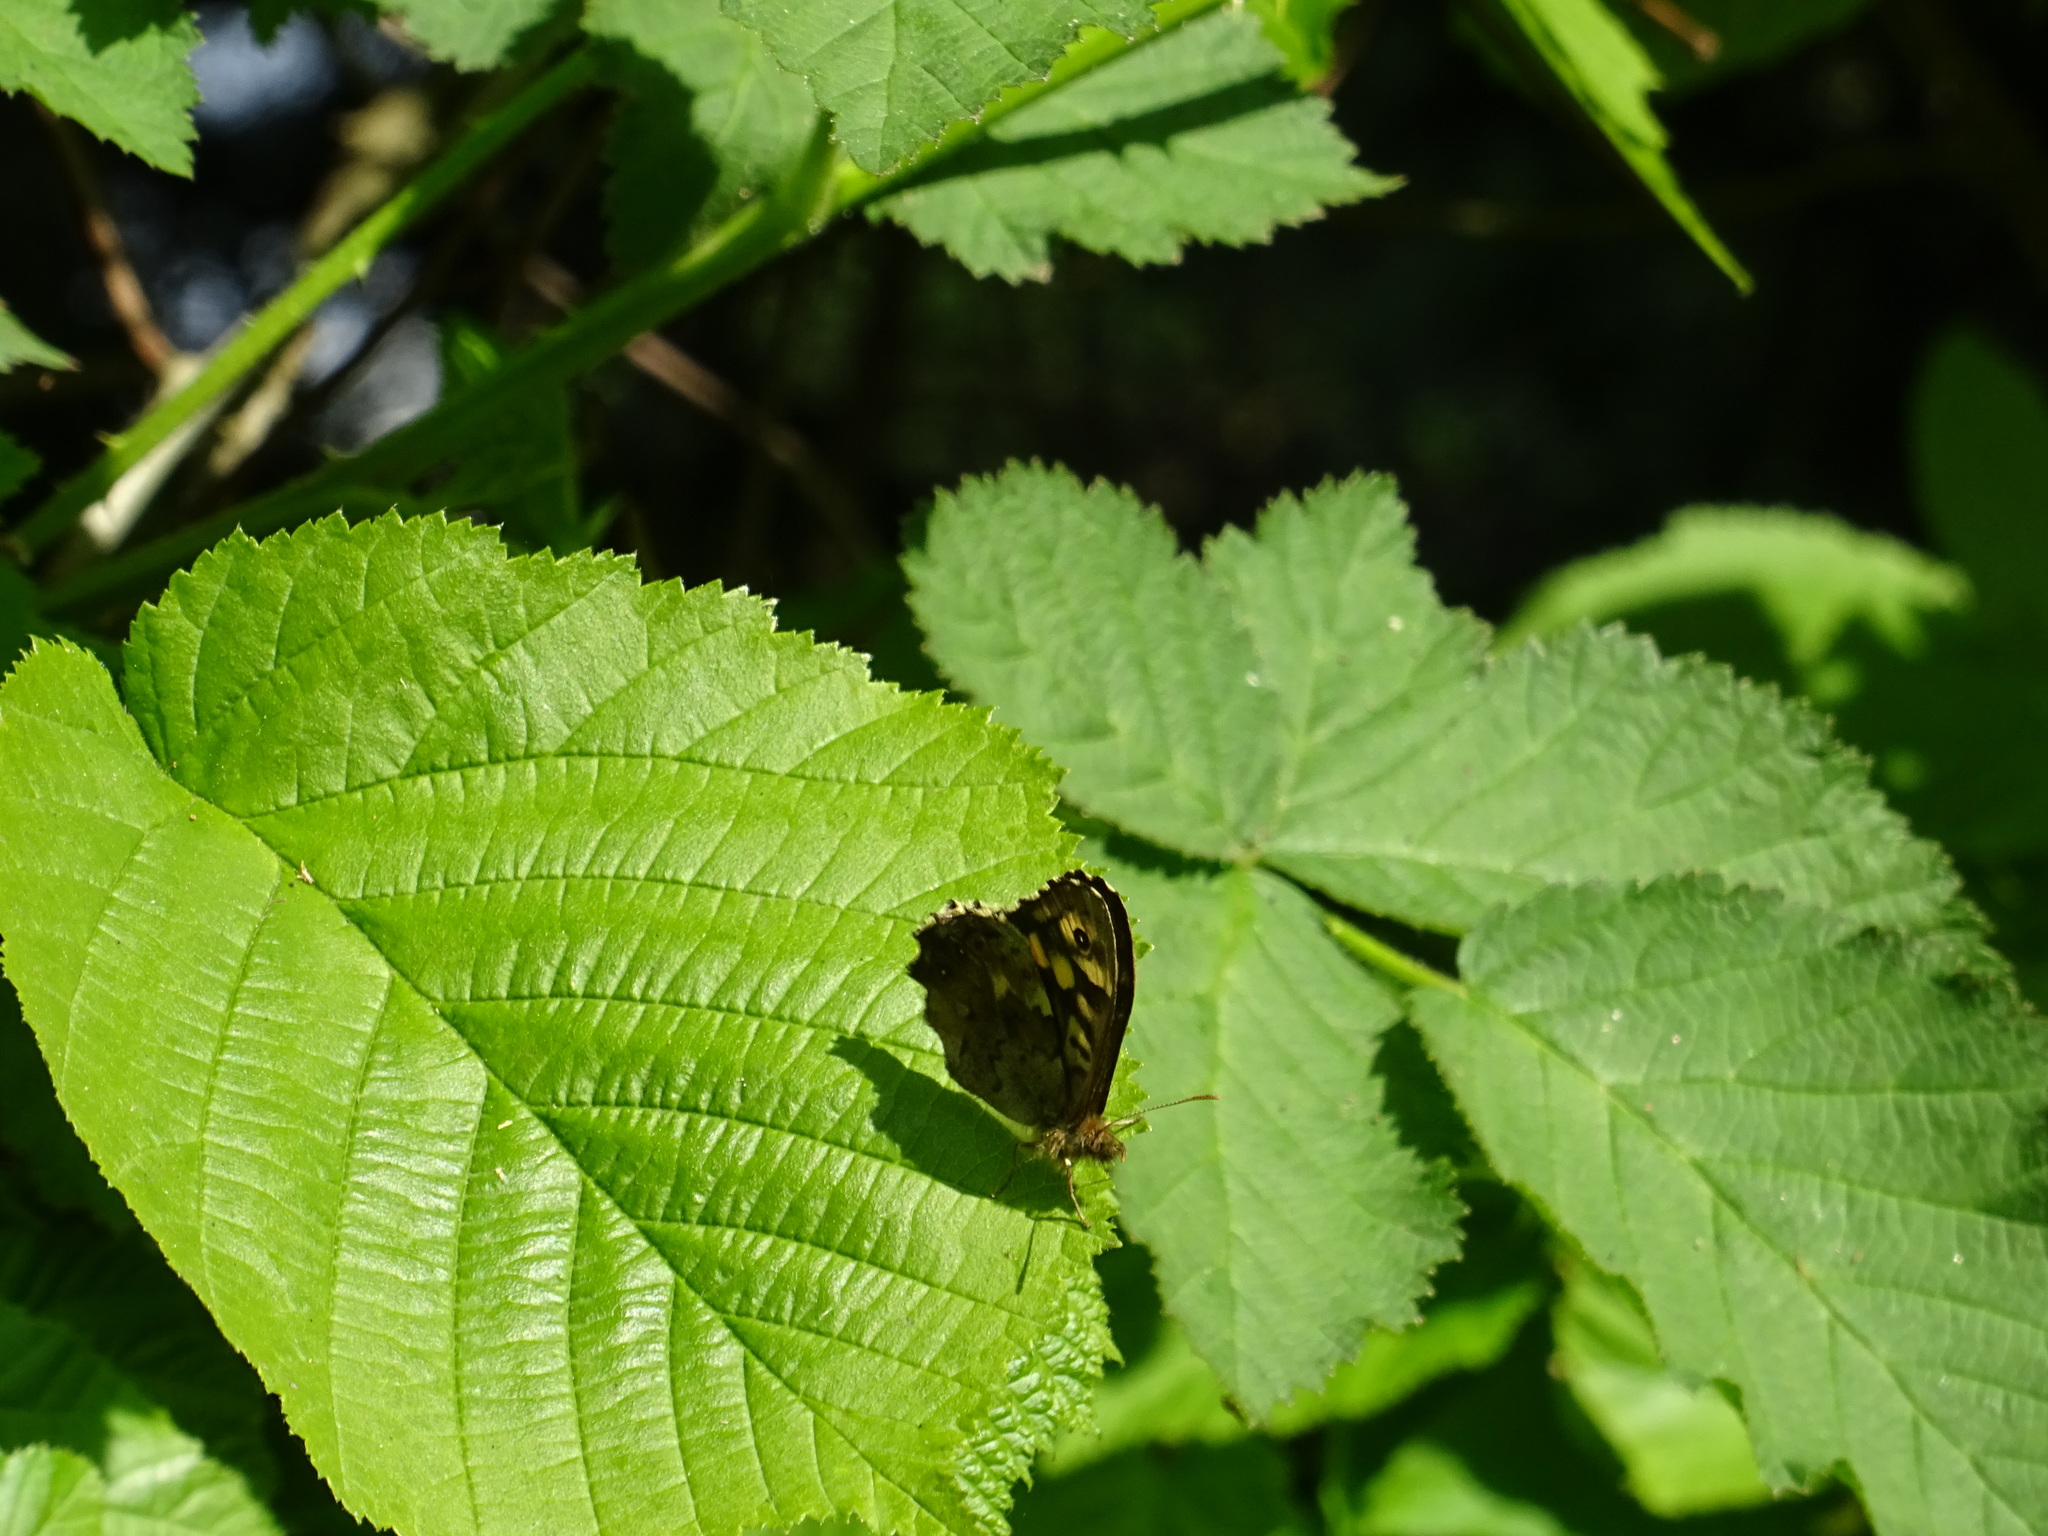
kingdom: Animalia
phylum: Arthropoda
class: Insecta
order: Lepidoptera
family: Nymphalidae
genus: Pararge
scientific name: Pararge aegeria
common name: Speckled wood
